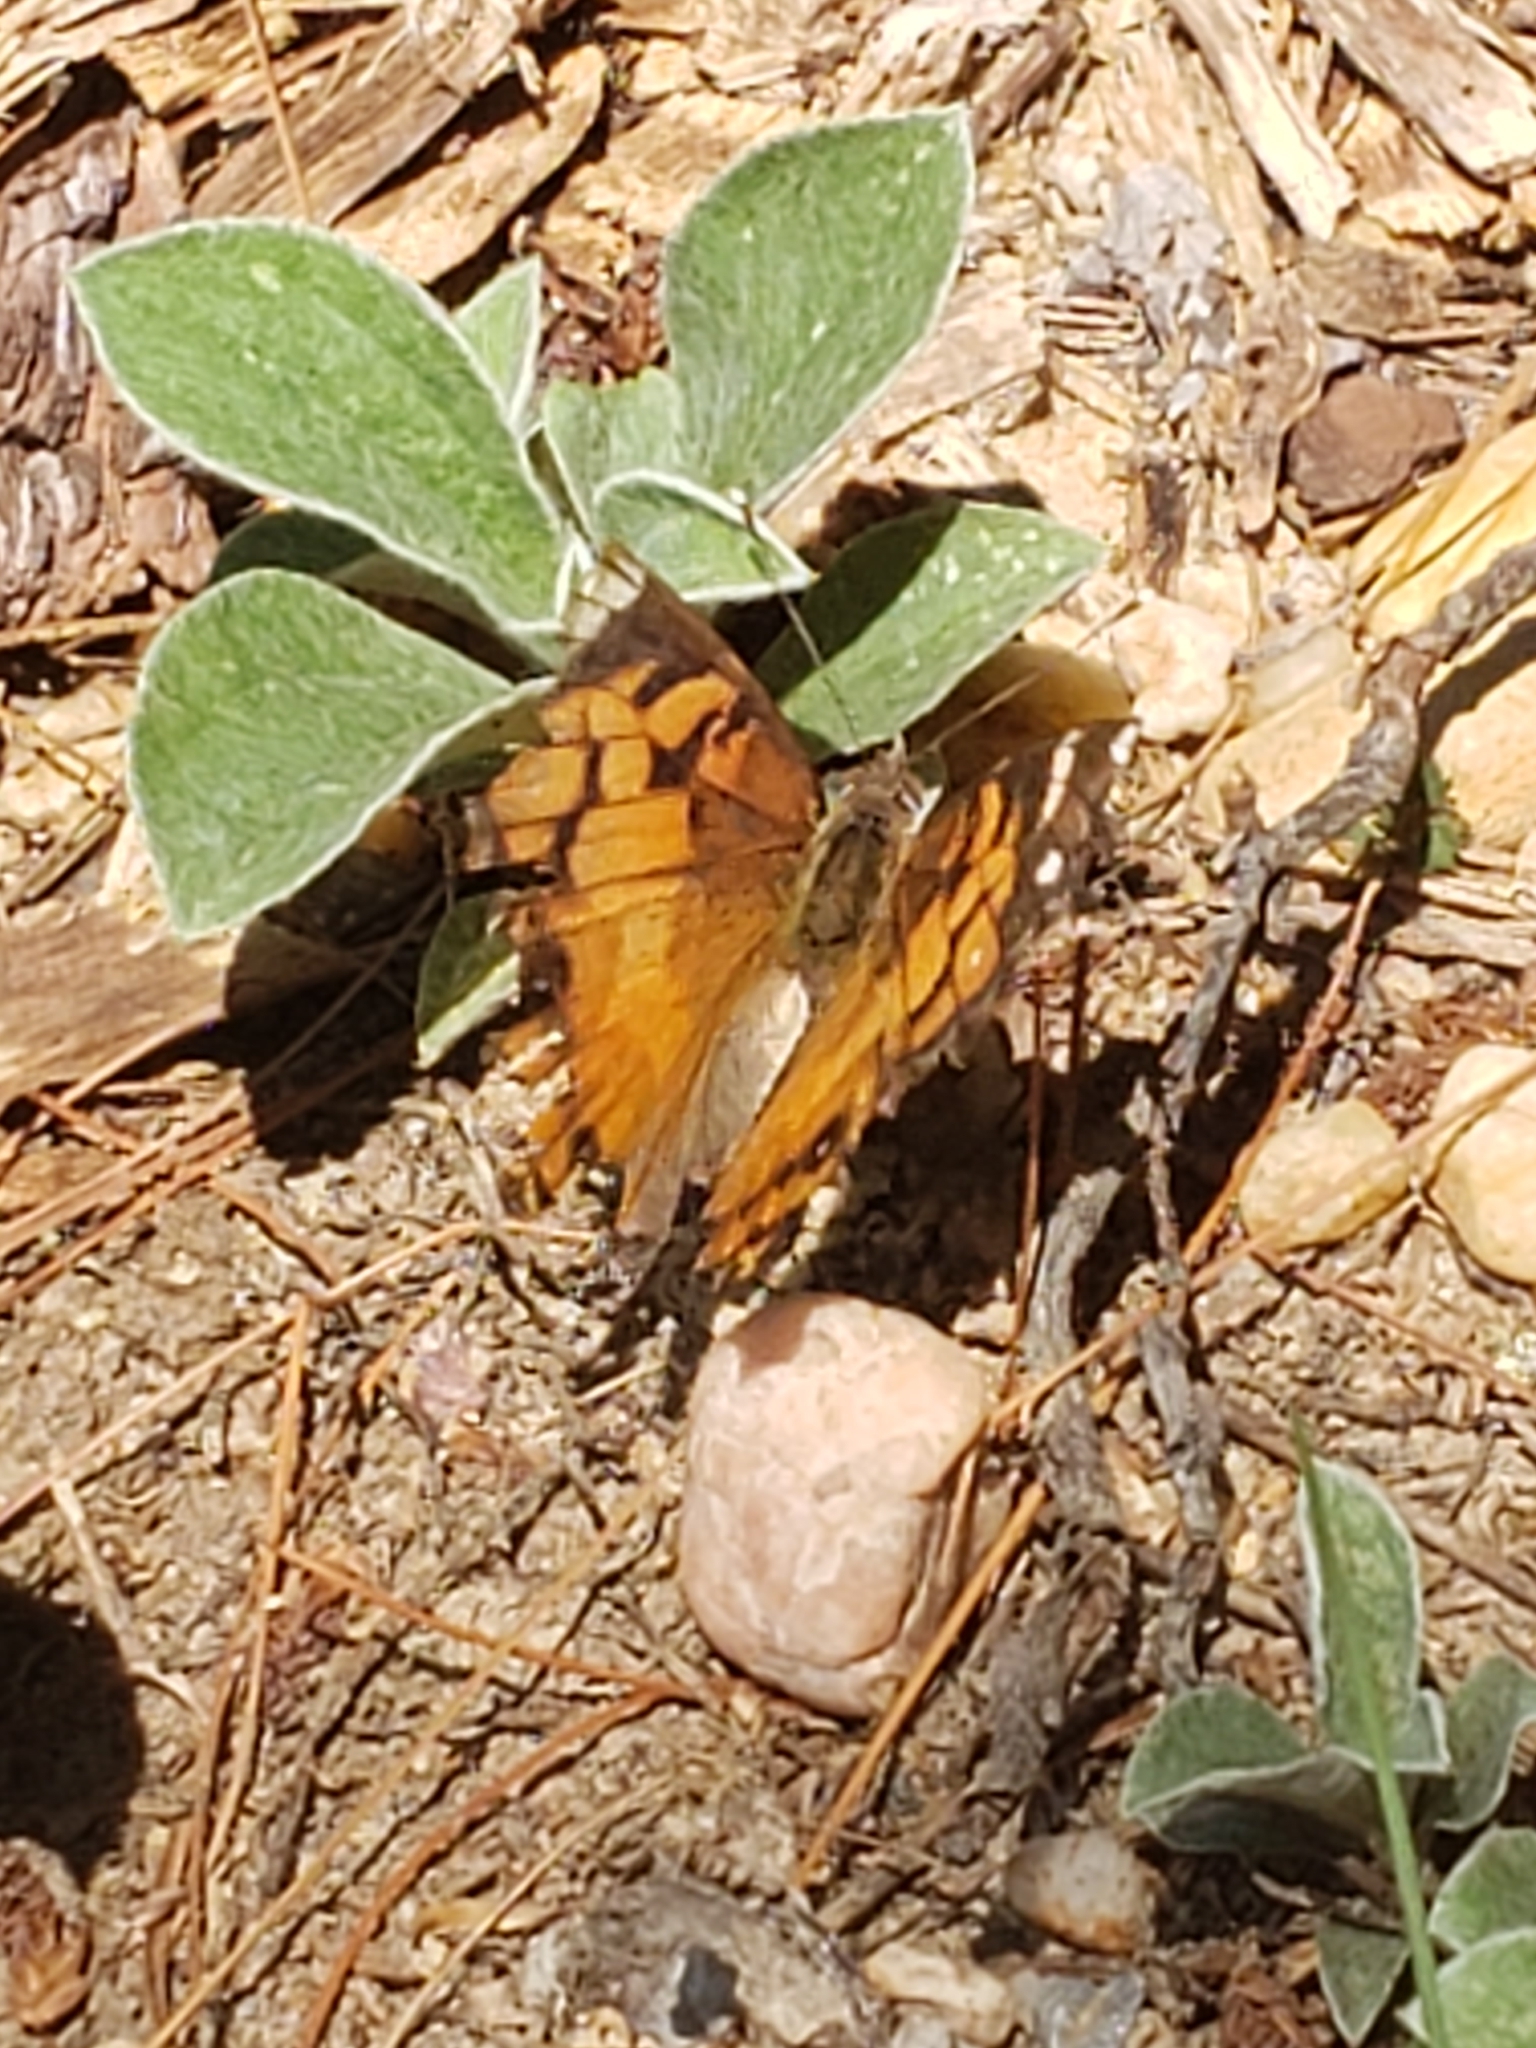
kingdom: Animalia
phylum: Arthropoda
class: Insecta
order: Lepidoptera
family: Nymphalidae
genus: Vanessa
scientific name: Vanessa virginiensis
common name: American lady
